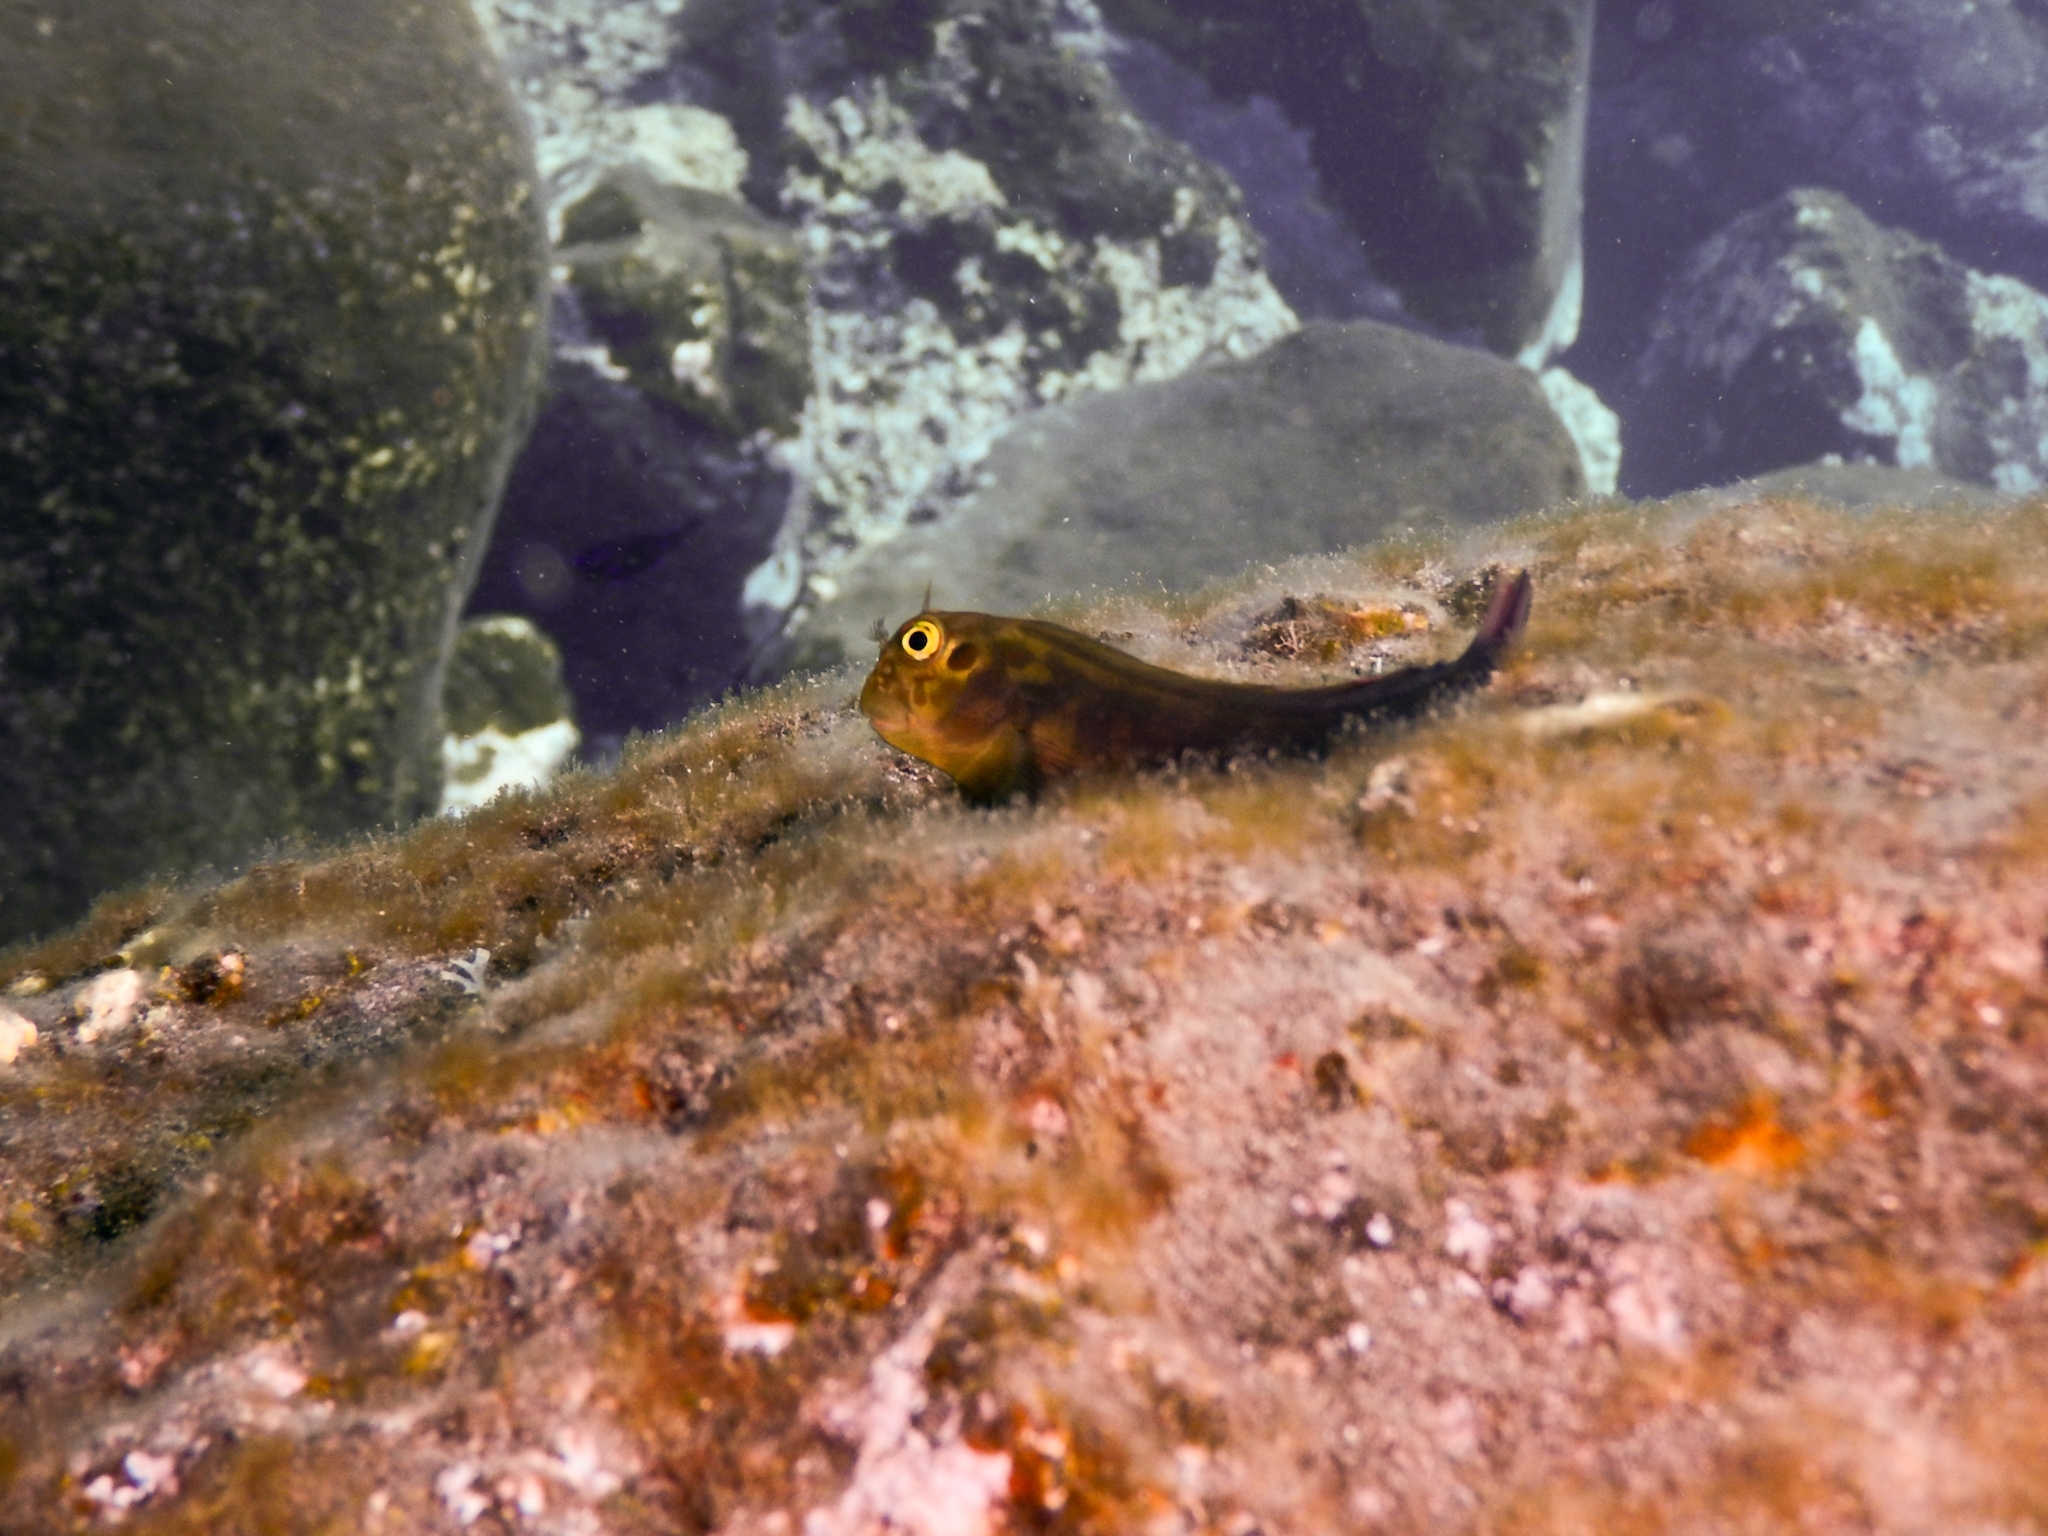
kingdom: Animalia
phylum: Chordata
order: Perciformes
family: Blenniidae
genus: Ophioblennius
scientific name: Ophioblennius atlanticus
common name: Redlip blenny
